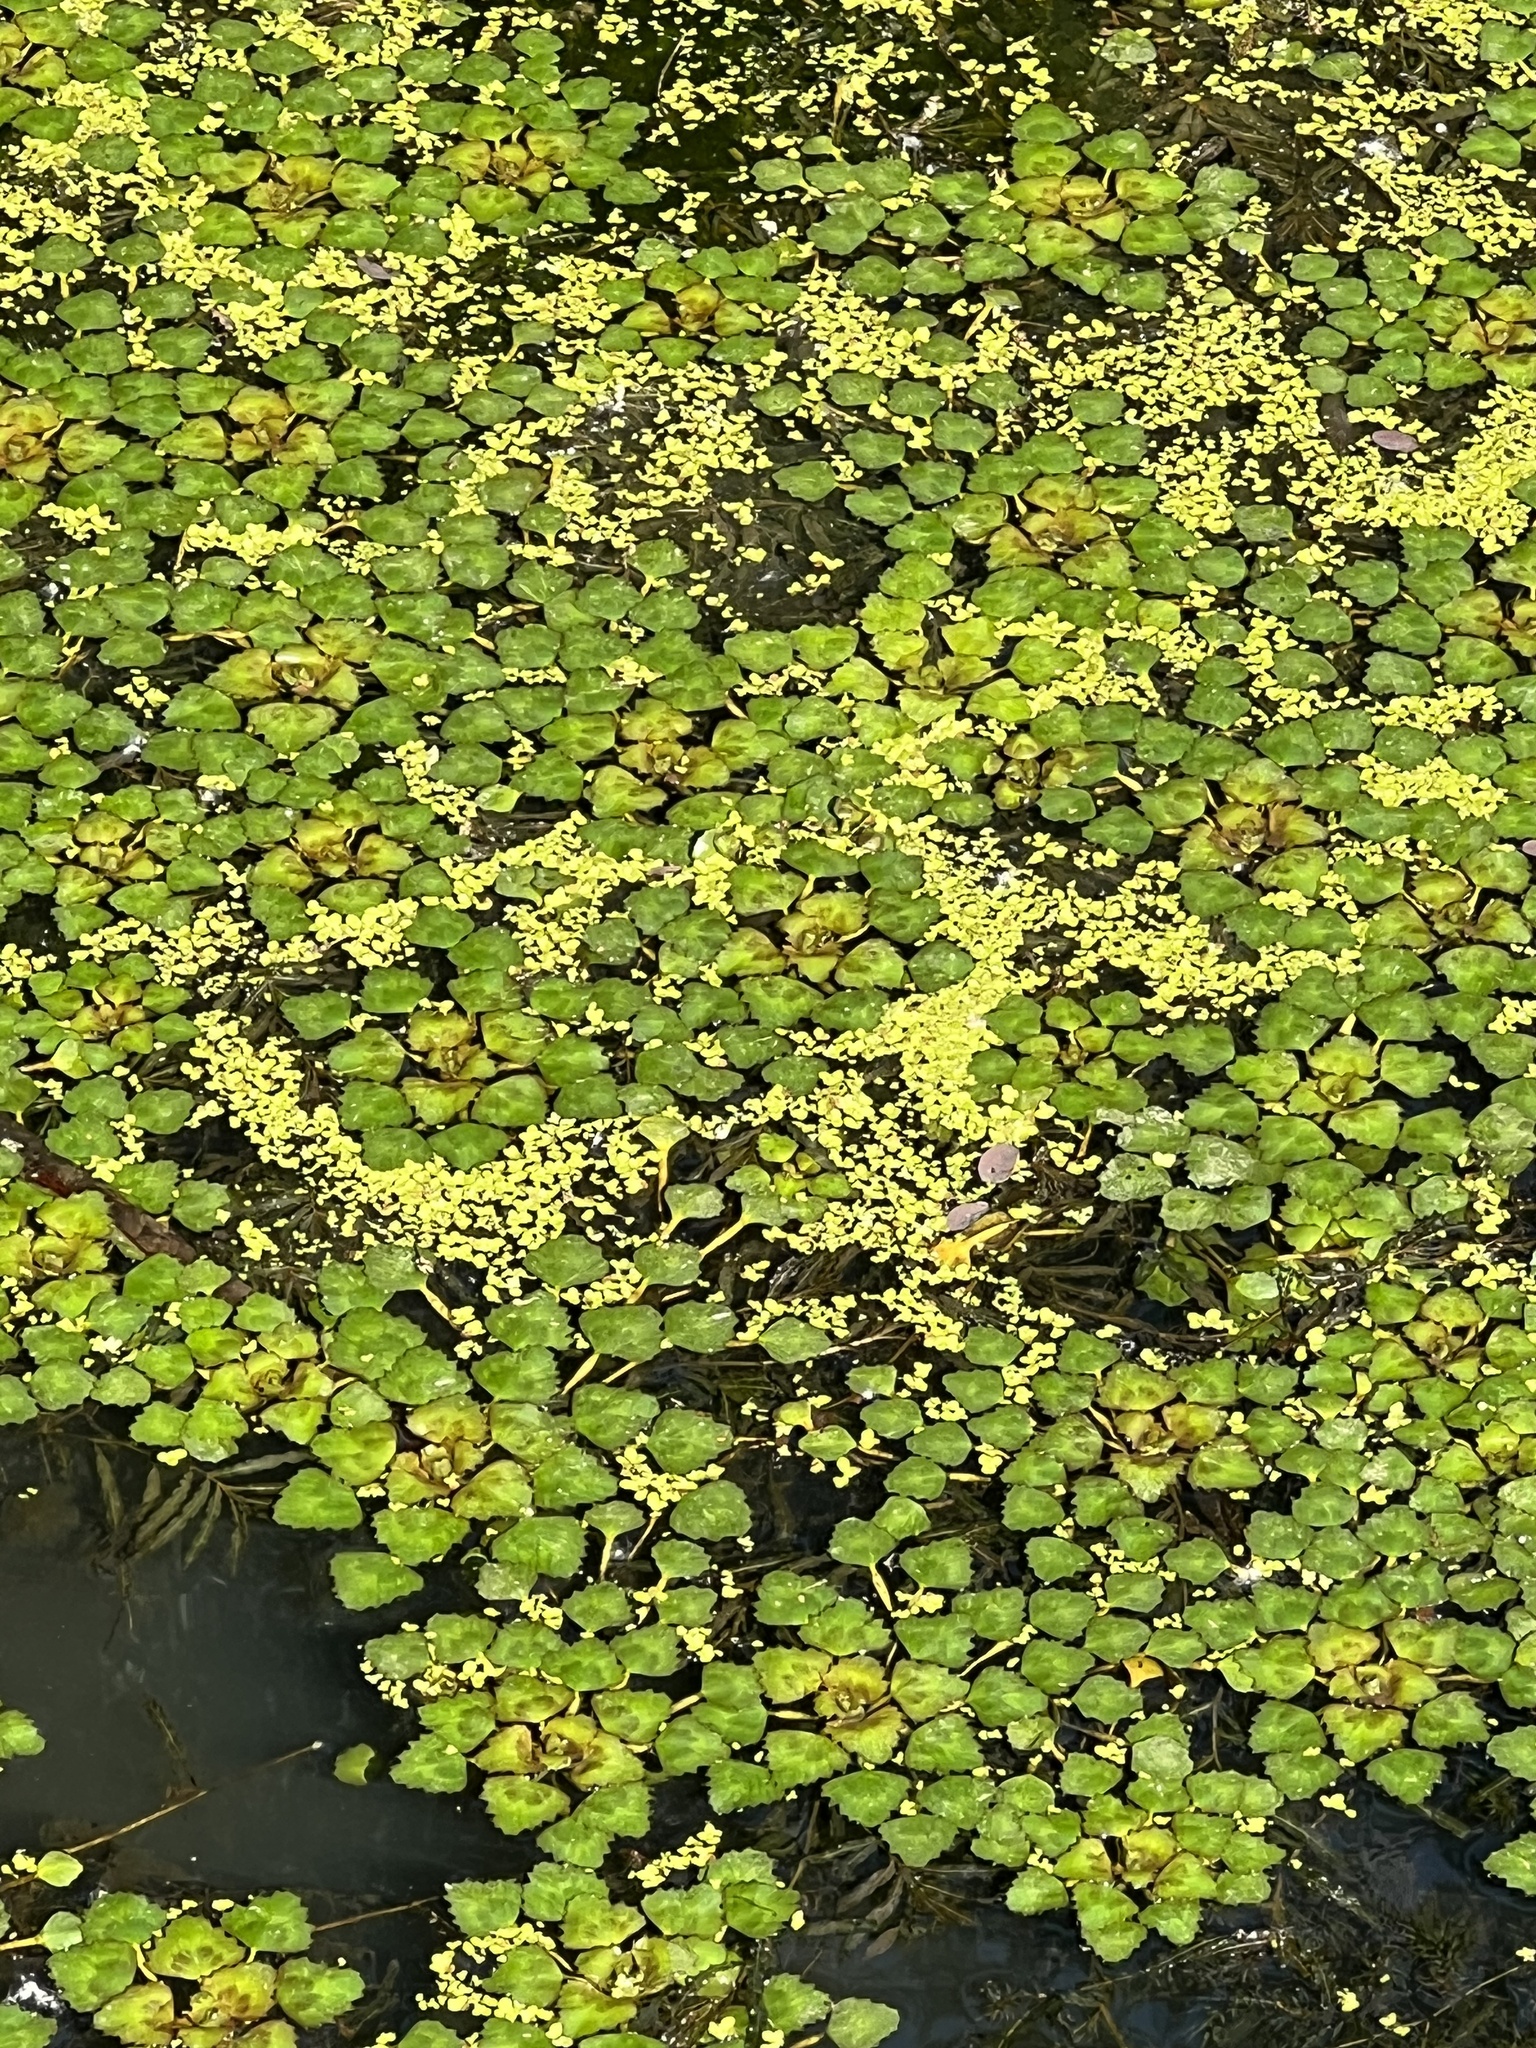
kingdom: Plantae
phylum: Tracheophyta
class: Magnoliopsida
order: Myrtales
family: Lythraceae
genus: Trapa
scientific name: Trapa natans
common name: Water chestnut
